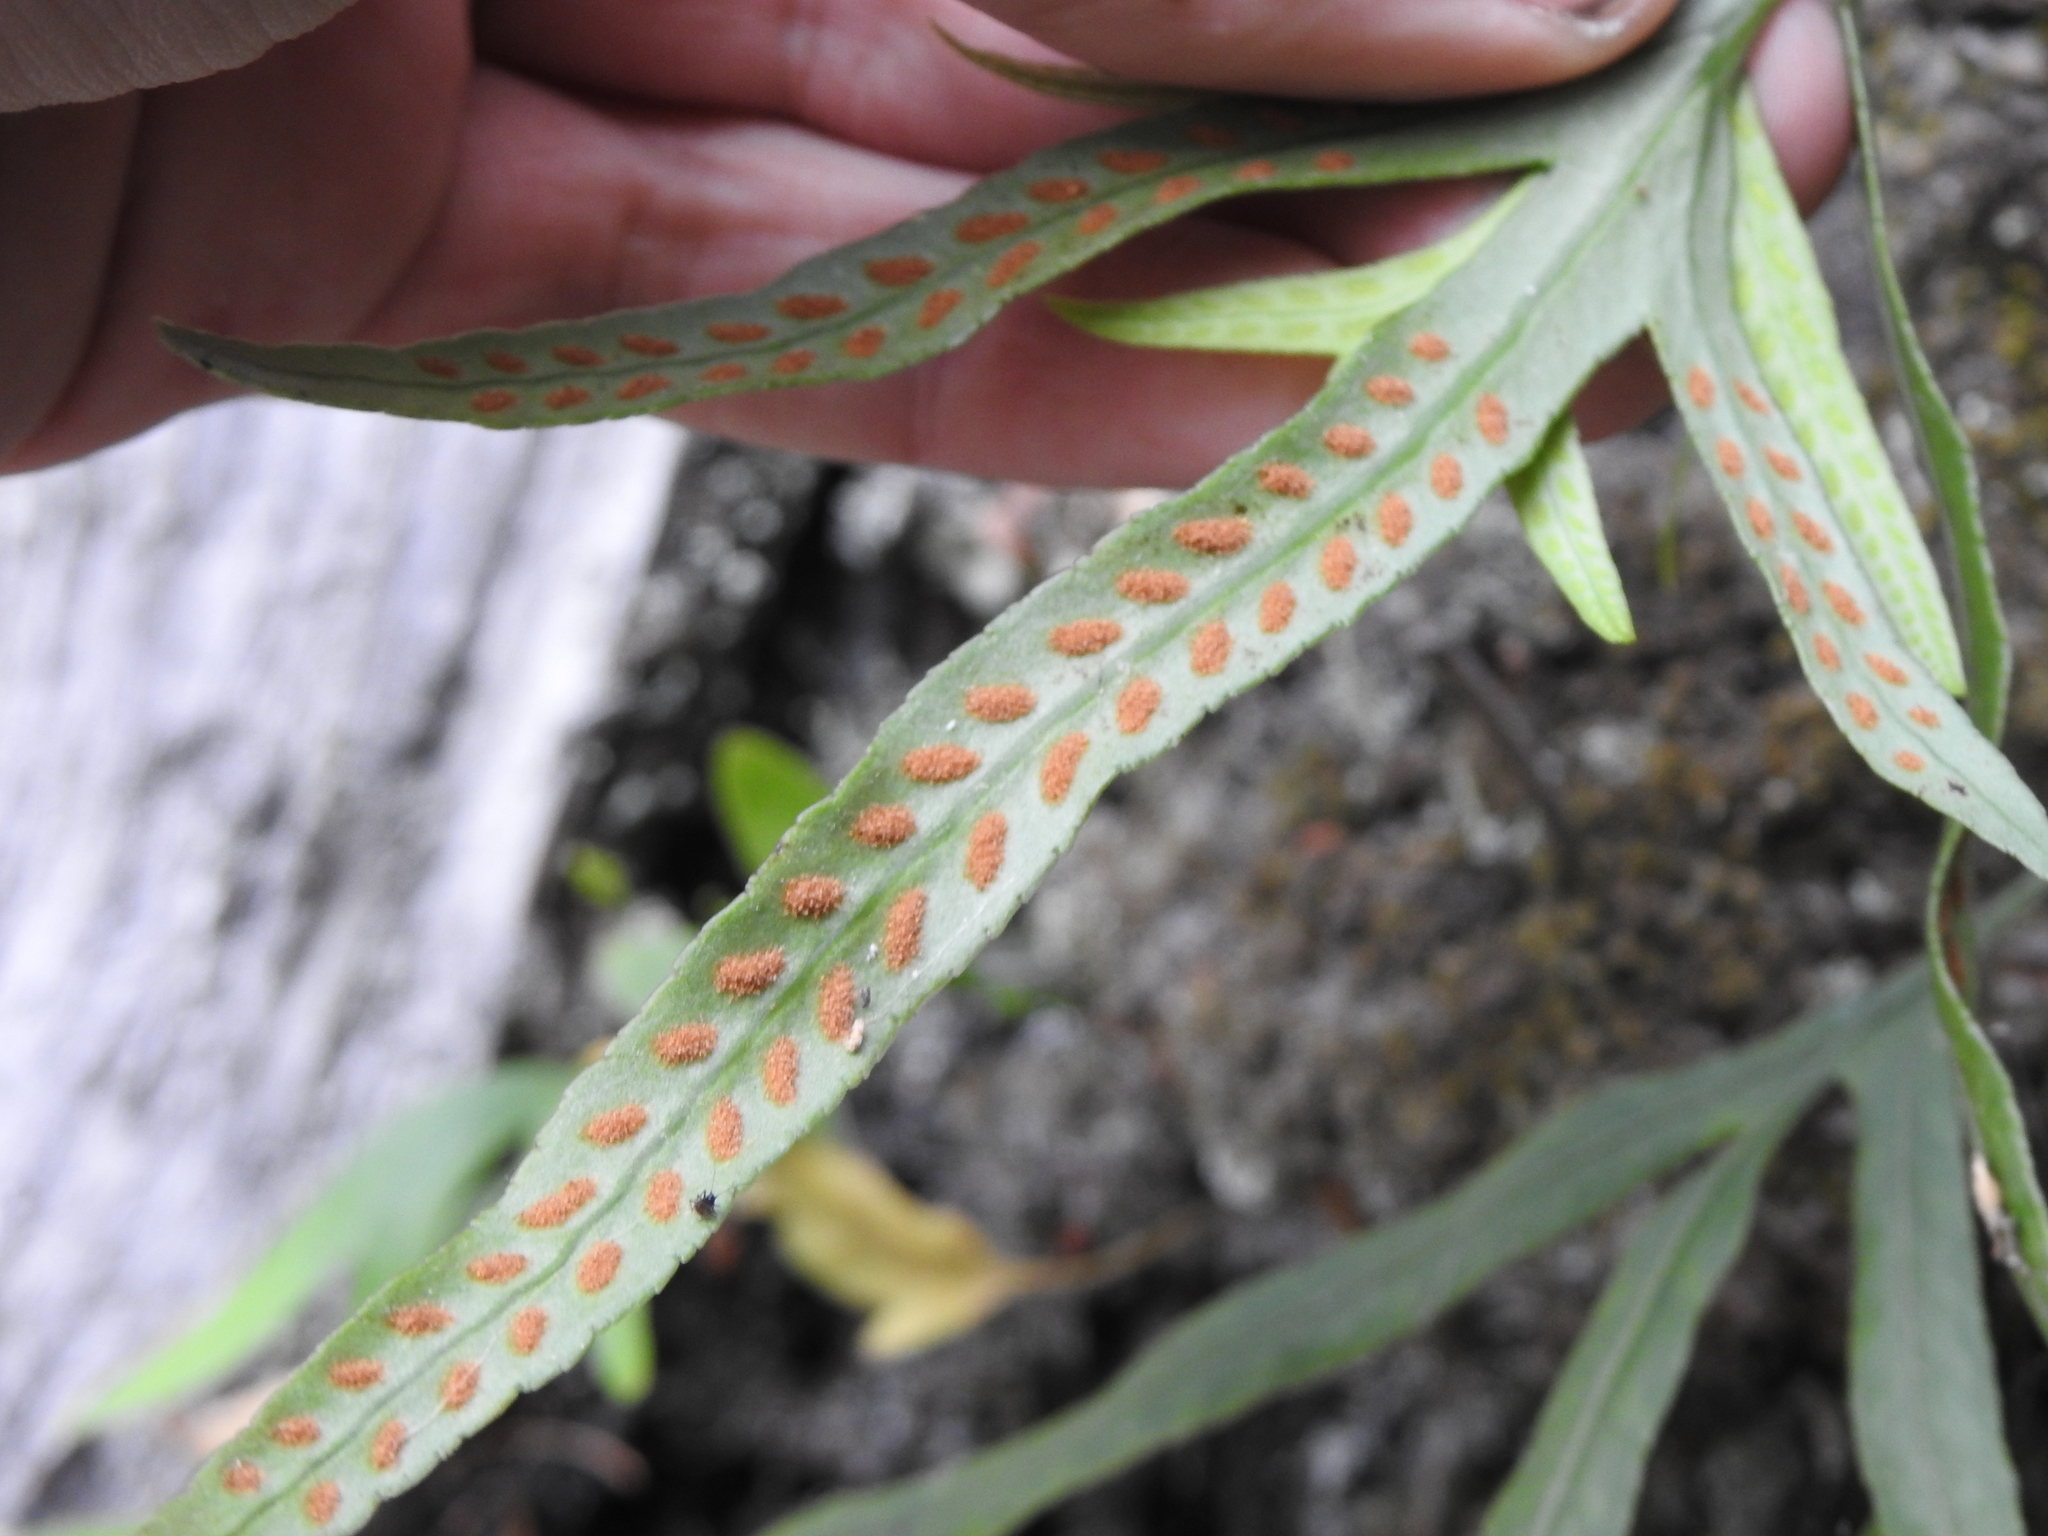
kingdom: Plantae
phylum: Tracheophyta
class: Polypodiopsida
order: Polypodiales
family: Polypodiaceae
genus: Synammia
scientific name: Synammia feuillei
